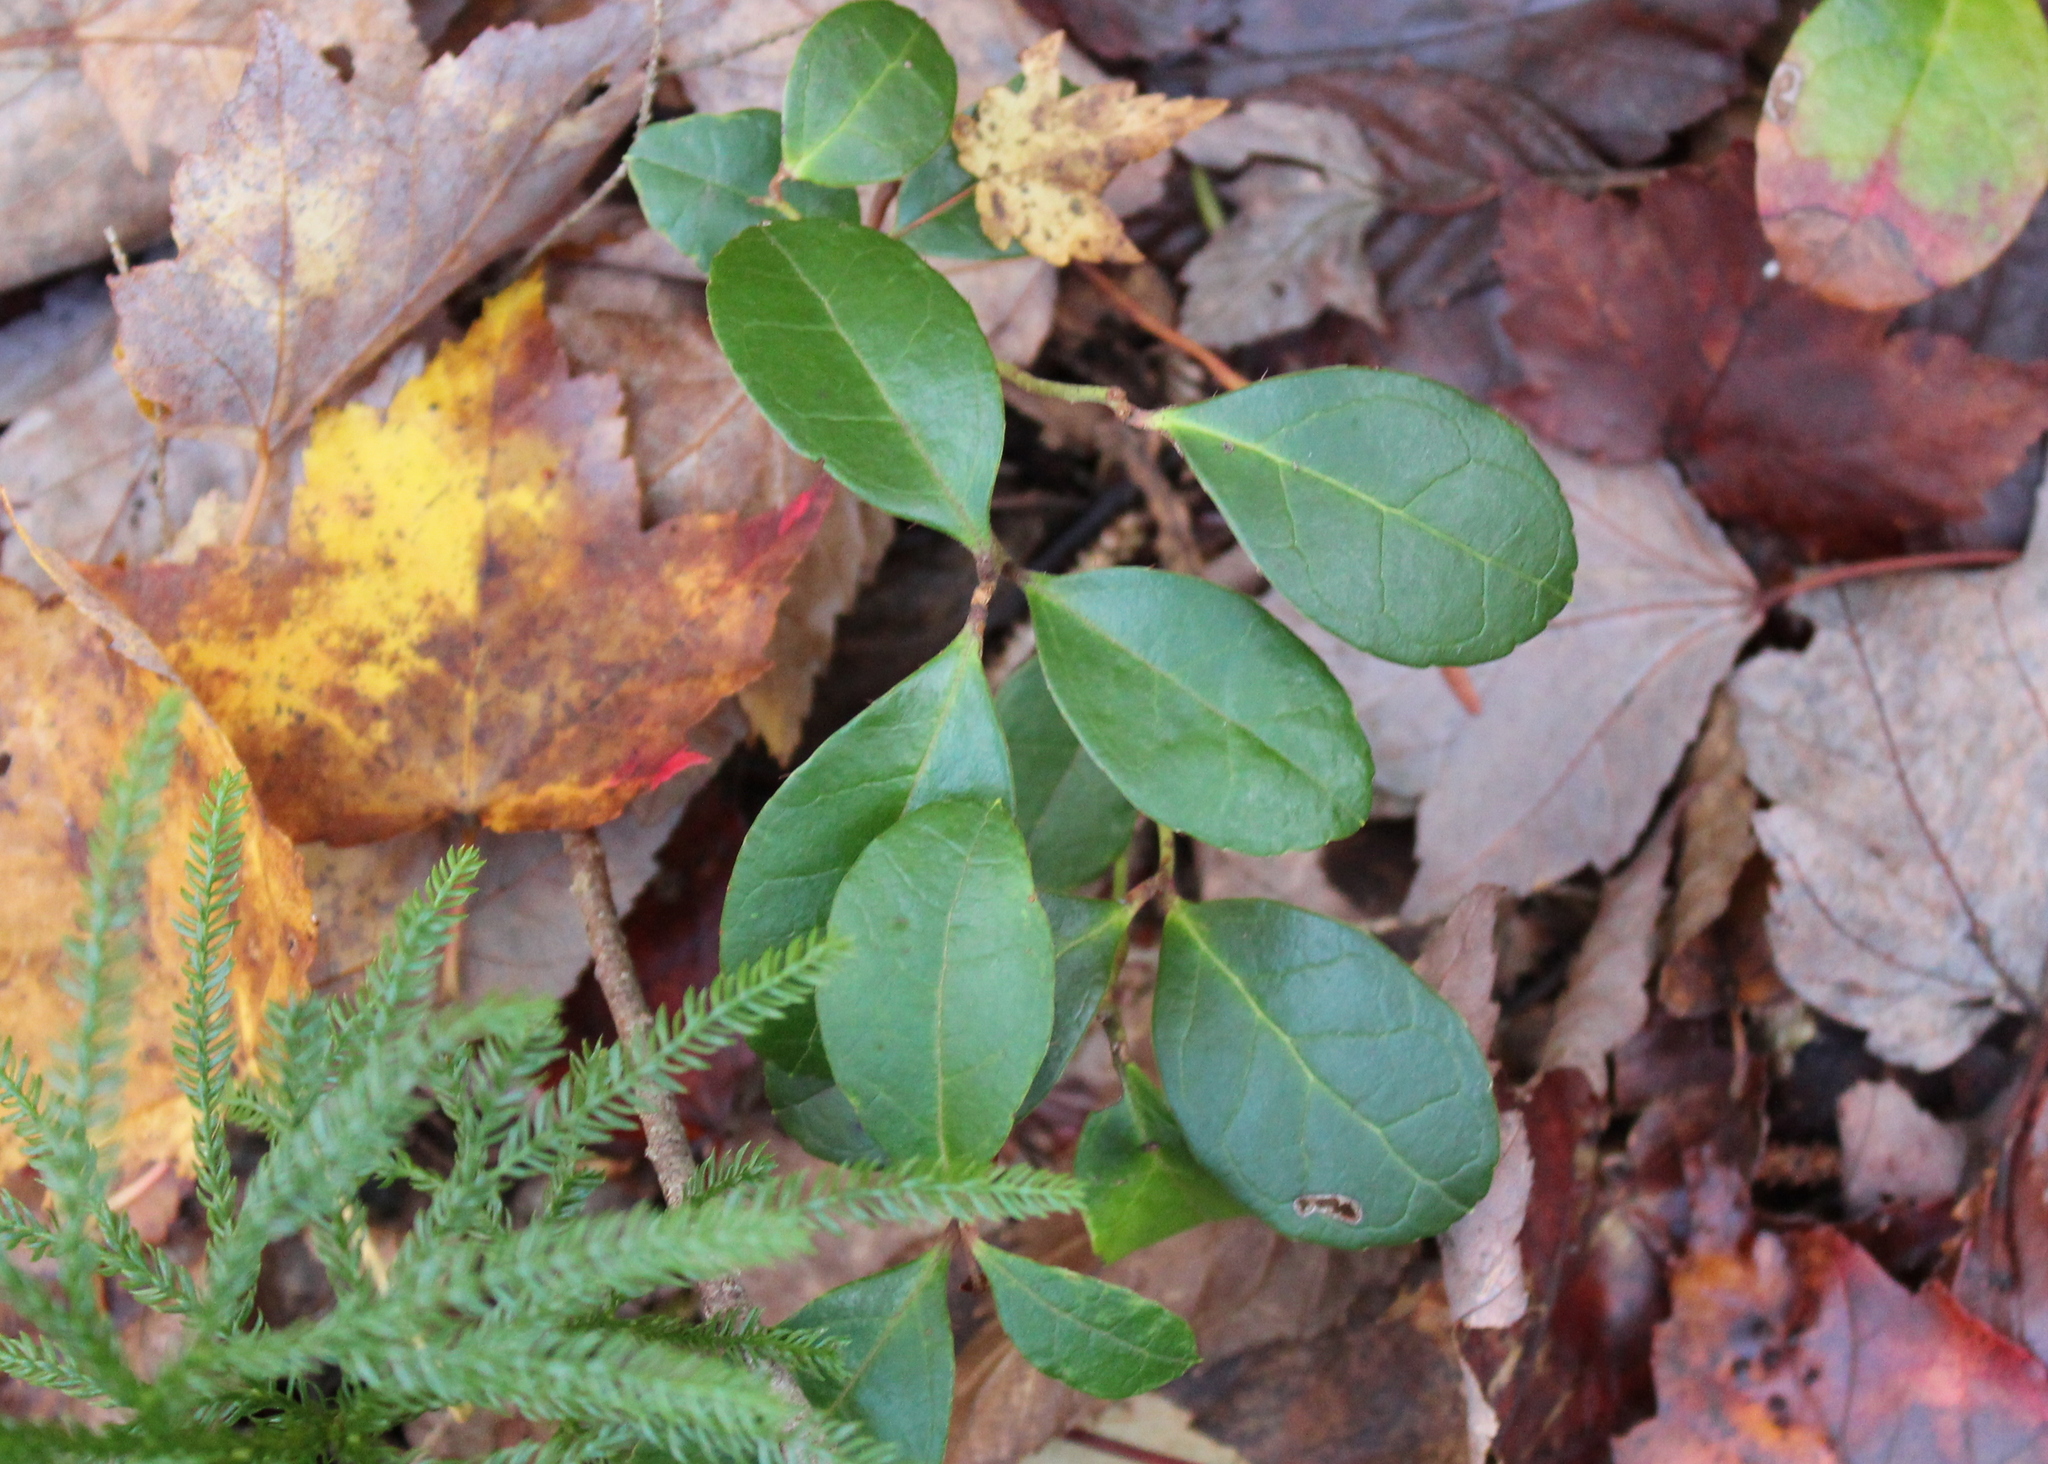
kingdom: Plantae
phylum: Tracheophyta
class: Magnoliopsida
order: Ericales
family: Ericaceae
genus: Gaultheria
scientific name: Gaultheria procumbens
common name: Checkerberry
